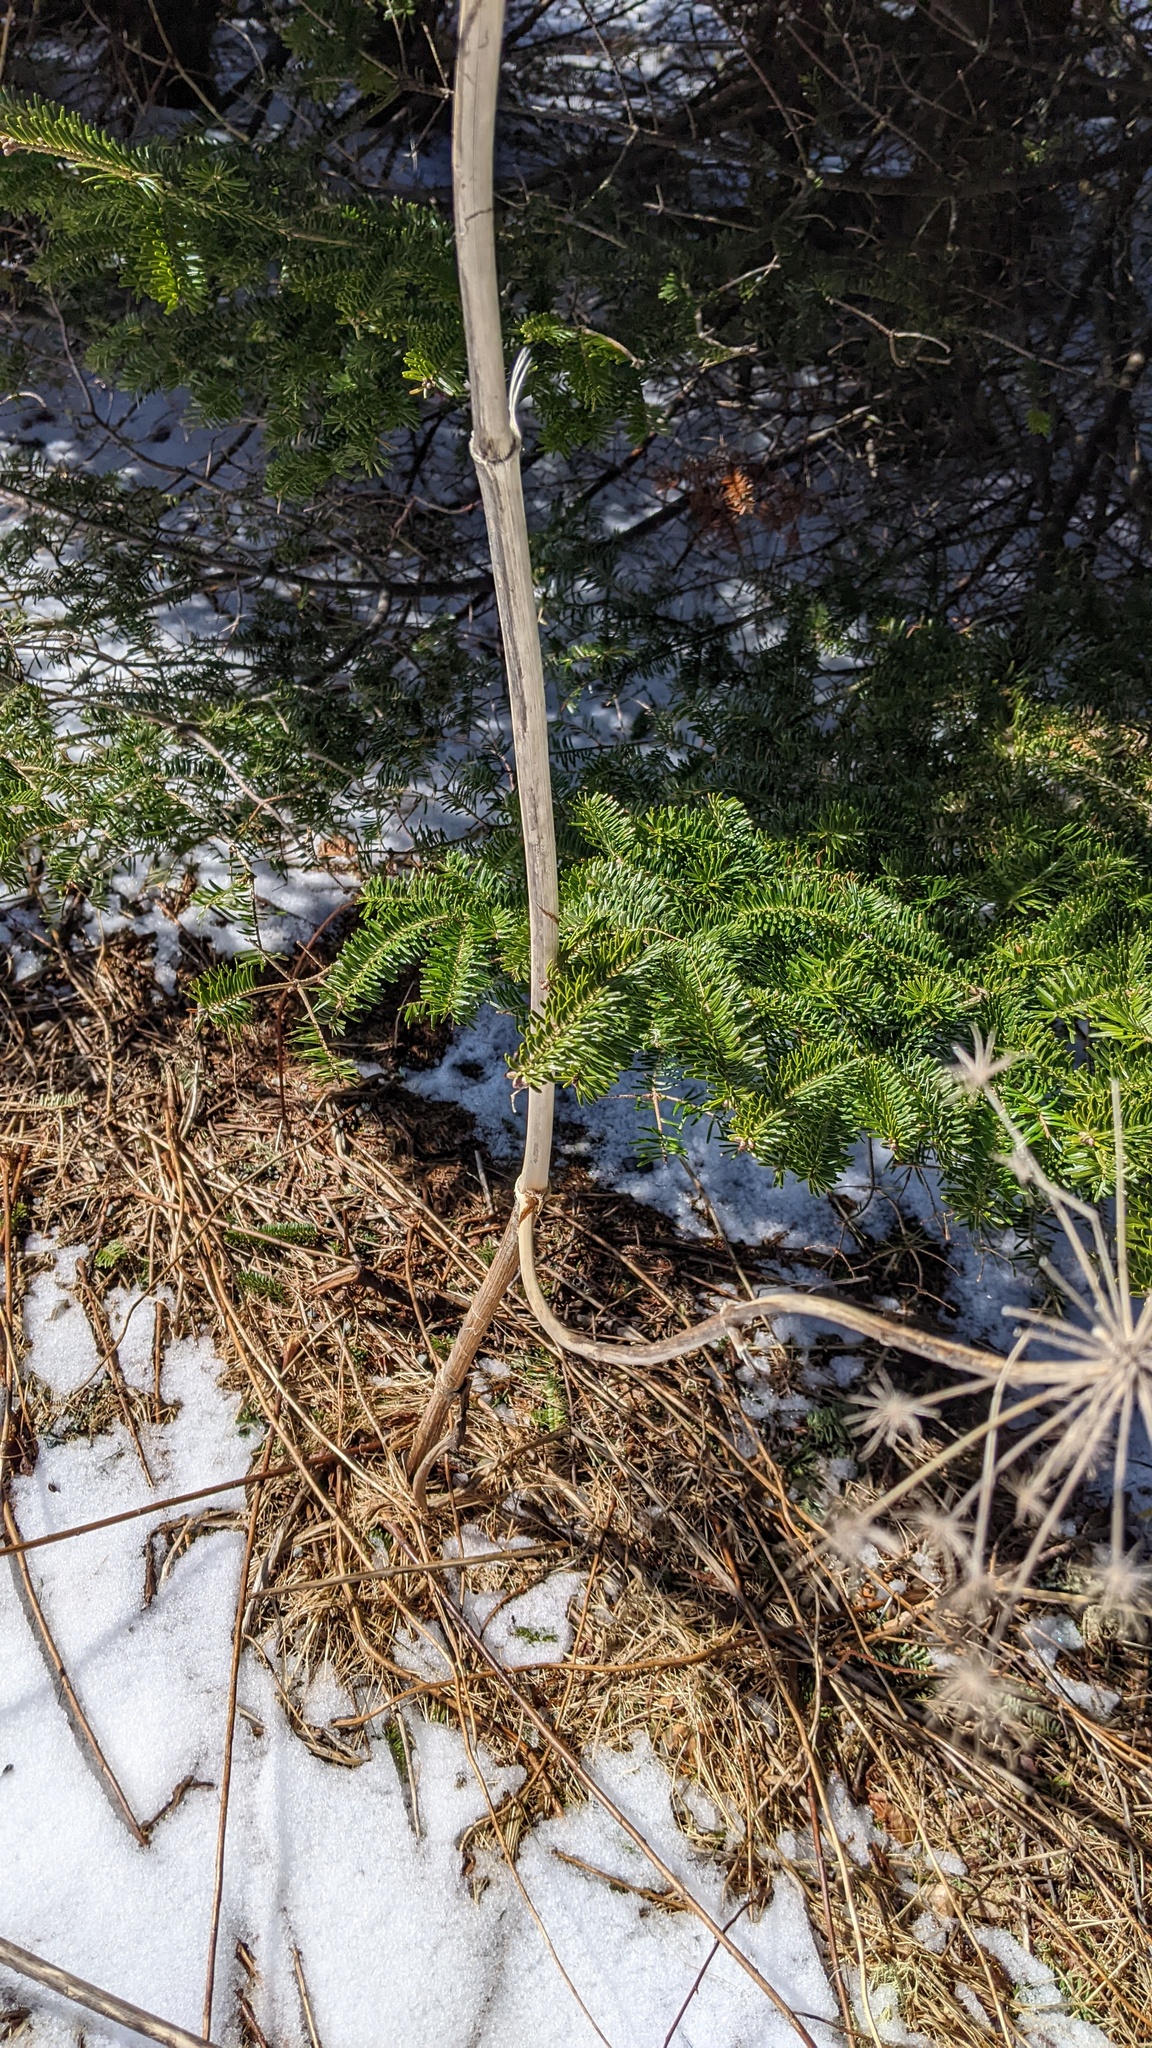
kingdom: Plantae
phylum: Tracheophyta
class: Magnoliopsida
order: Apiales
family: Apiaceae
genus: Angelica
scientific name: Angelica sylvestris
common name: Wild angelica
